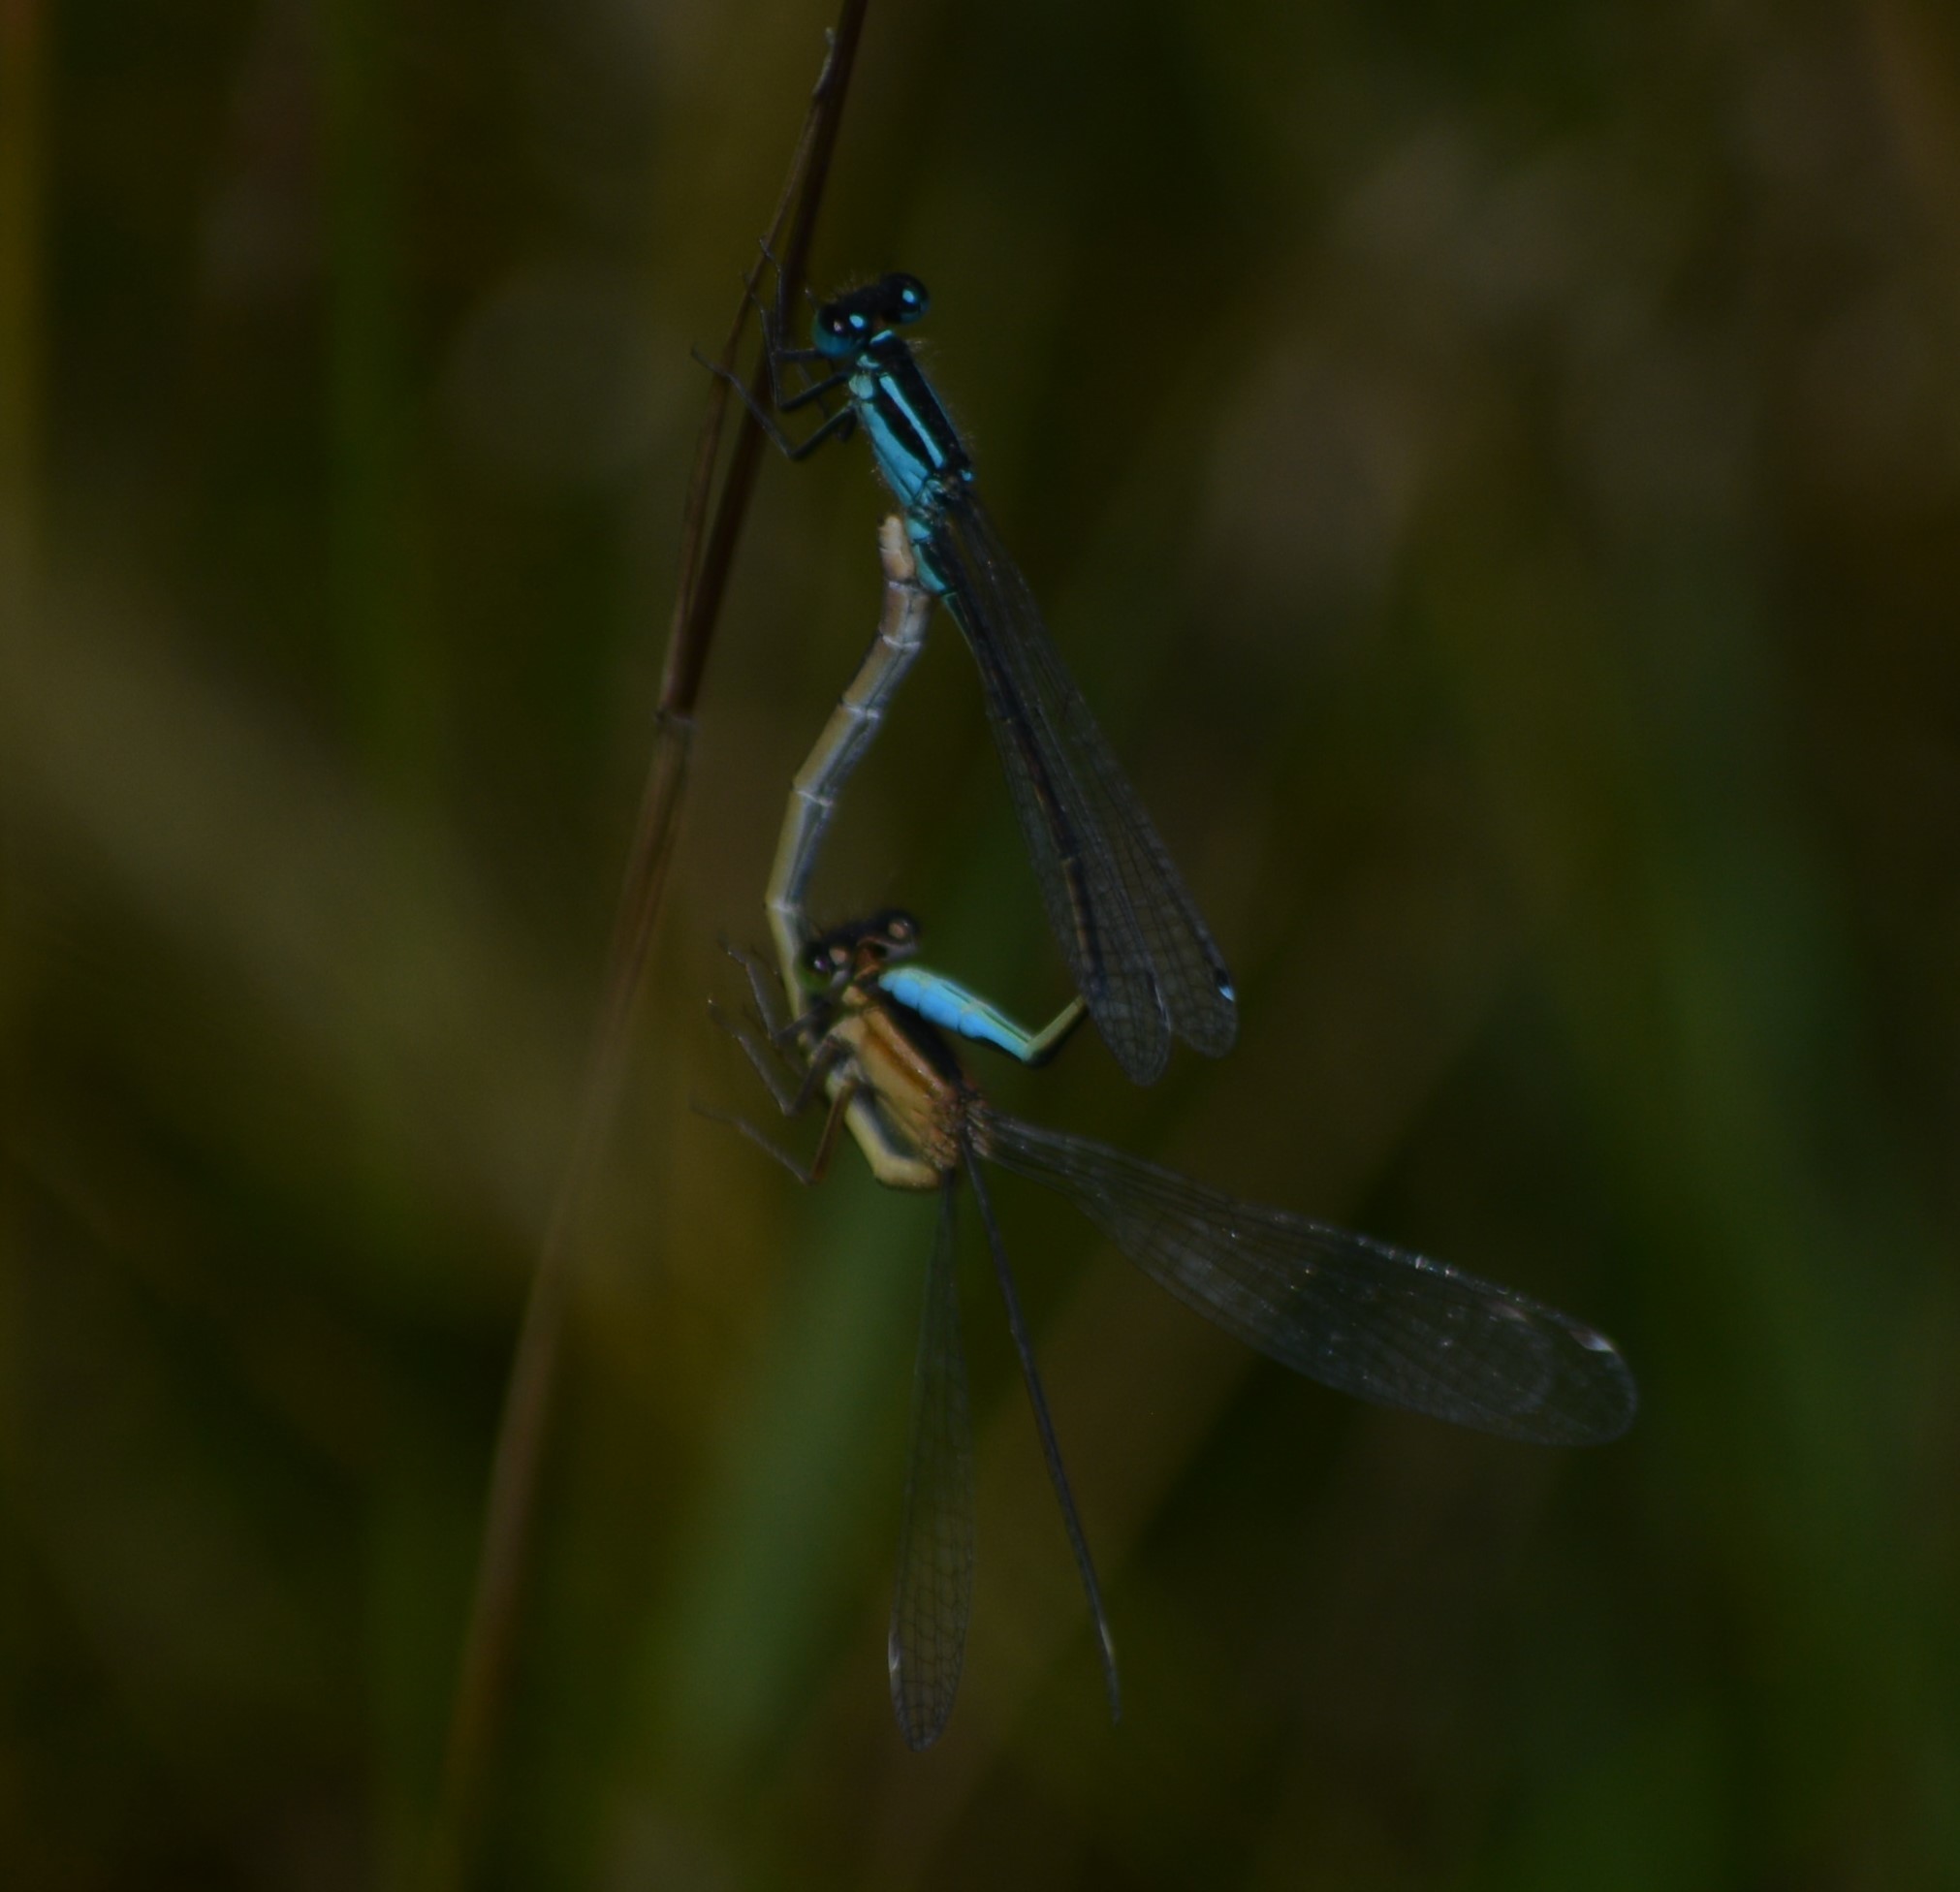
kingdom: Animalia
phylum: Arthropoda
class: Insecta
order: Odonata
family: Coenagrionidae
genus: Ischnura
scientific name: Ischnura elegans
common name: Blue-tailed damselfly
